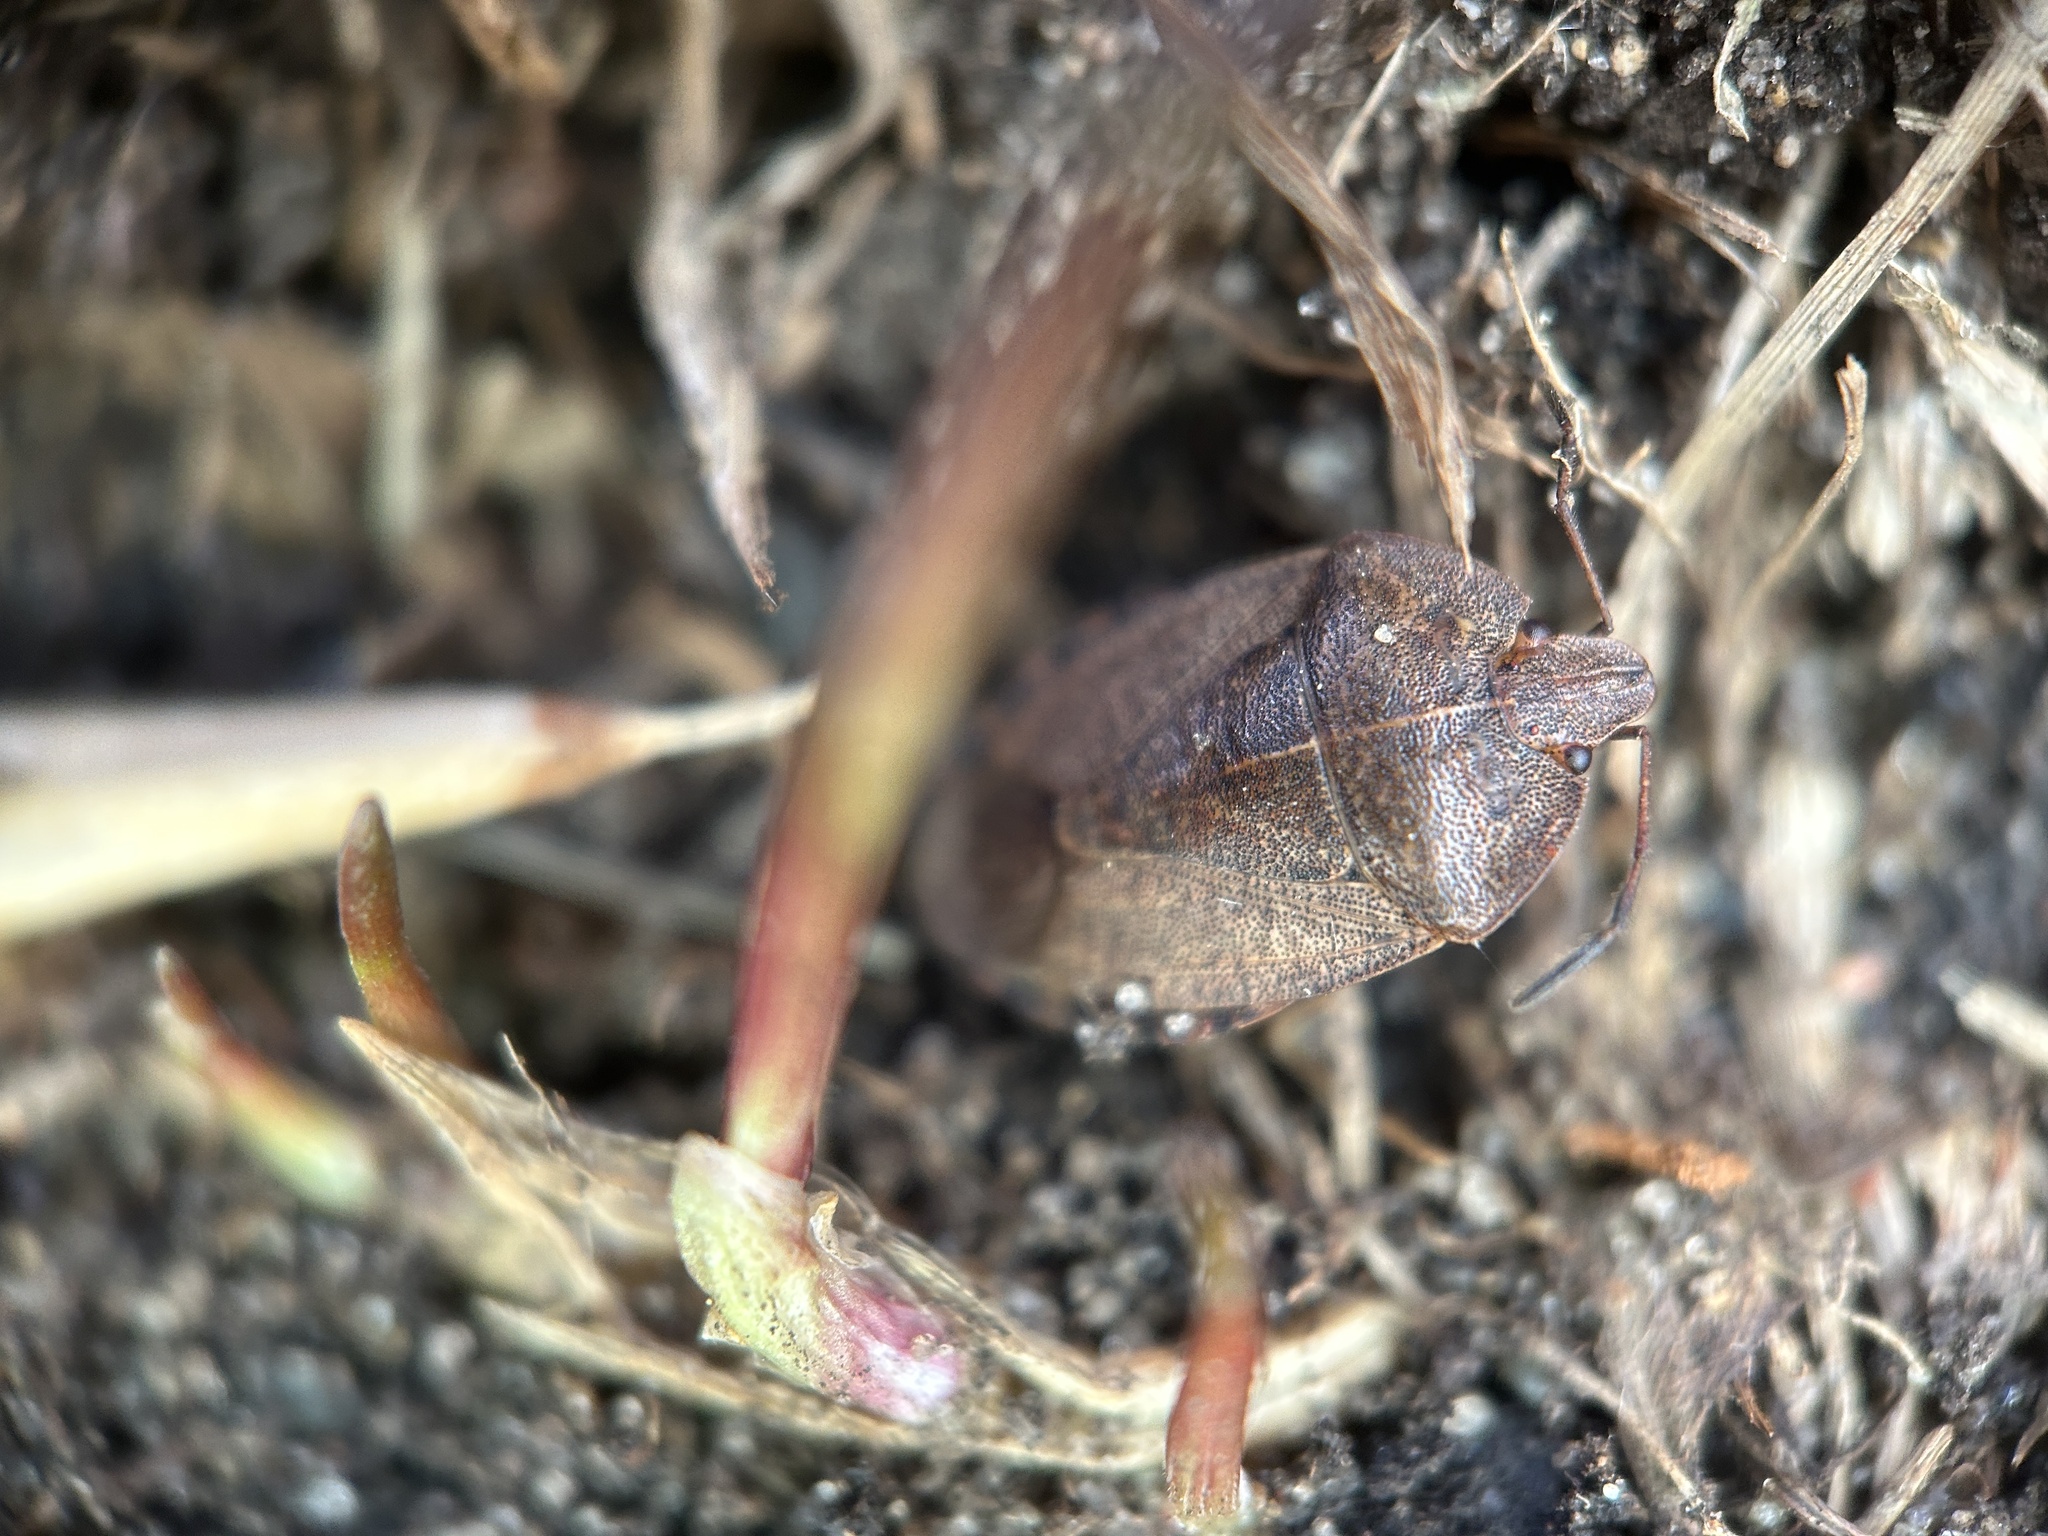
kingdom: Animalia
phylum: Arthropoda
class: Insecta
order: Hemiptera
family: Pentatomidae
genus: Menecles
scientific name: Menecles insertus
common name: Elf shoe stink bug
